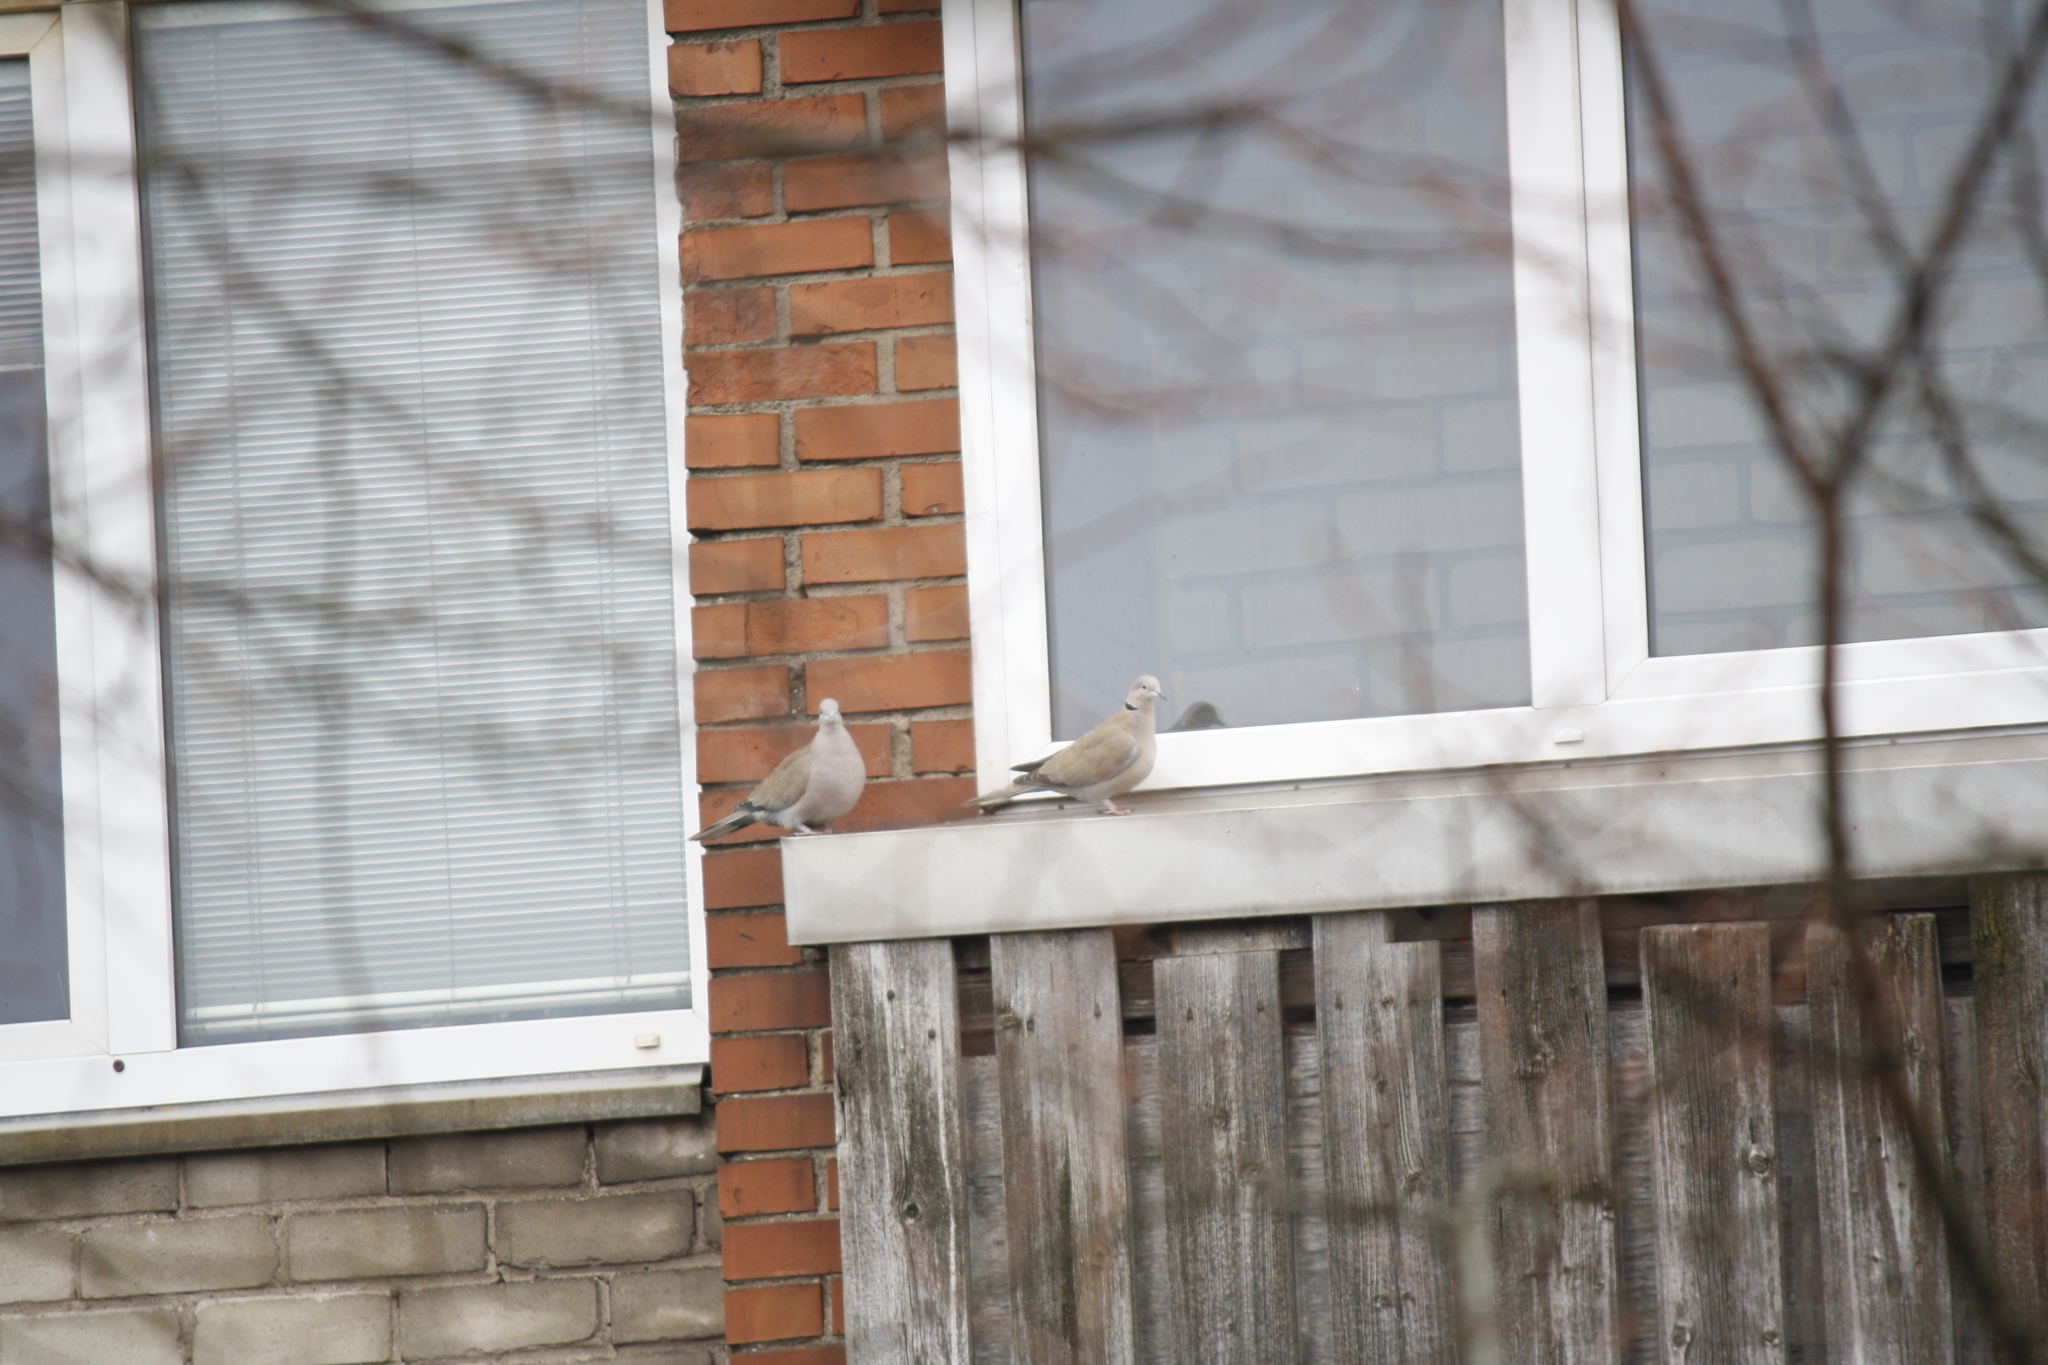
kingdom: Animalia
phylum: Chordata
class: Aves
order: Columbiformes
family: Columbidae
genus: Streptopelia
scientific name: Streptopelia decaocto
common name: Eurasian collared dove
